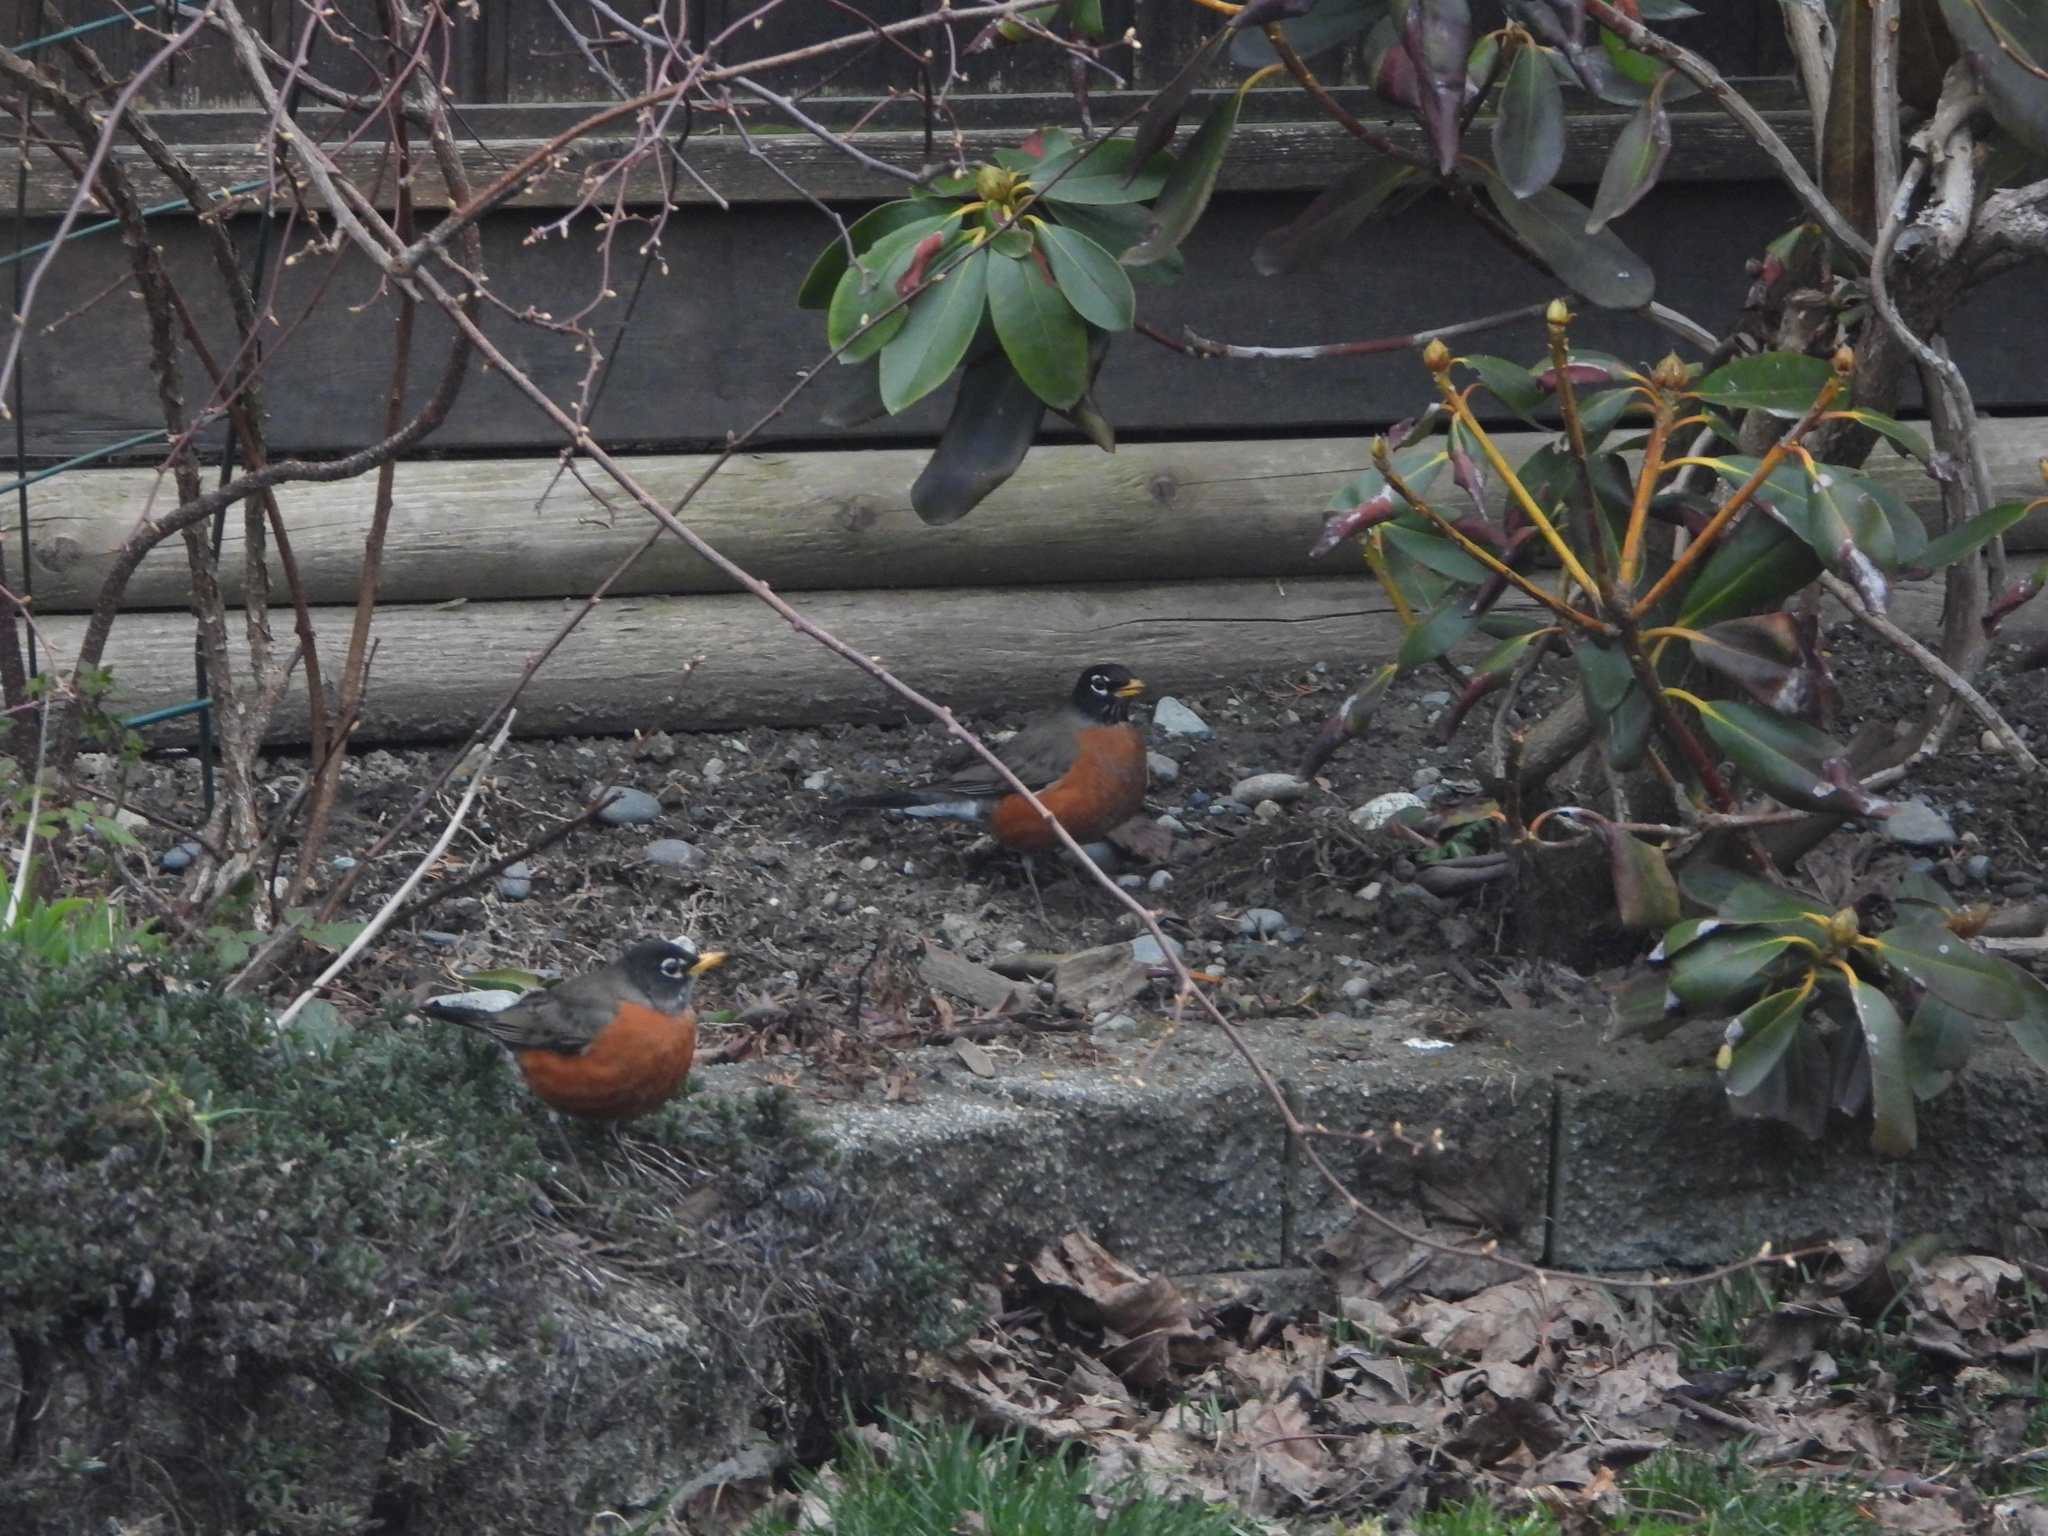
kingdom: Animalia
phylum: Chordata
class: Aves
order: Passeriformes
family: Turdidae
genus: Turdus
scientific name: Turdus migratorius
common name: American robin
